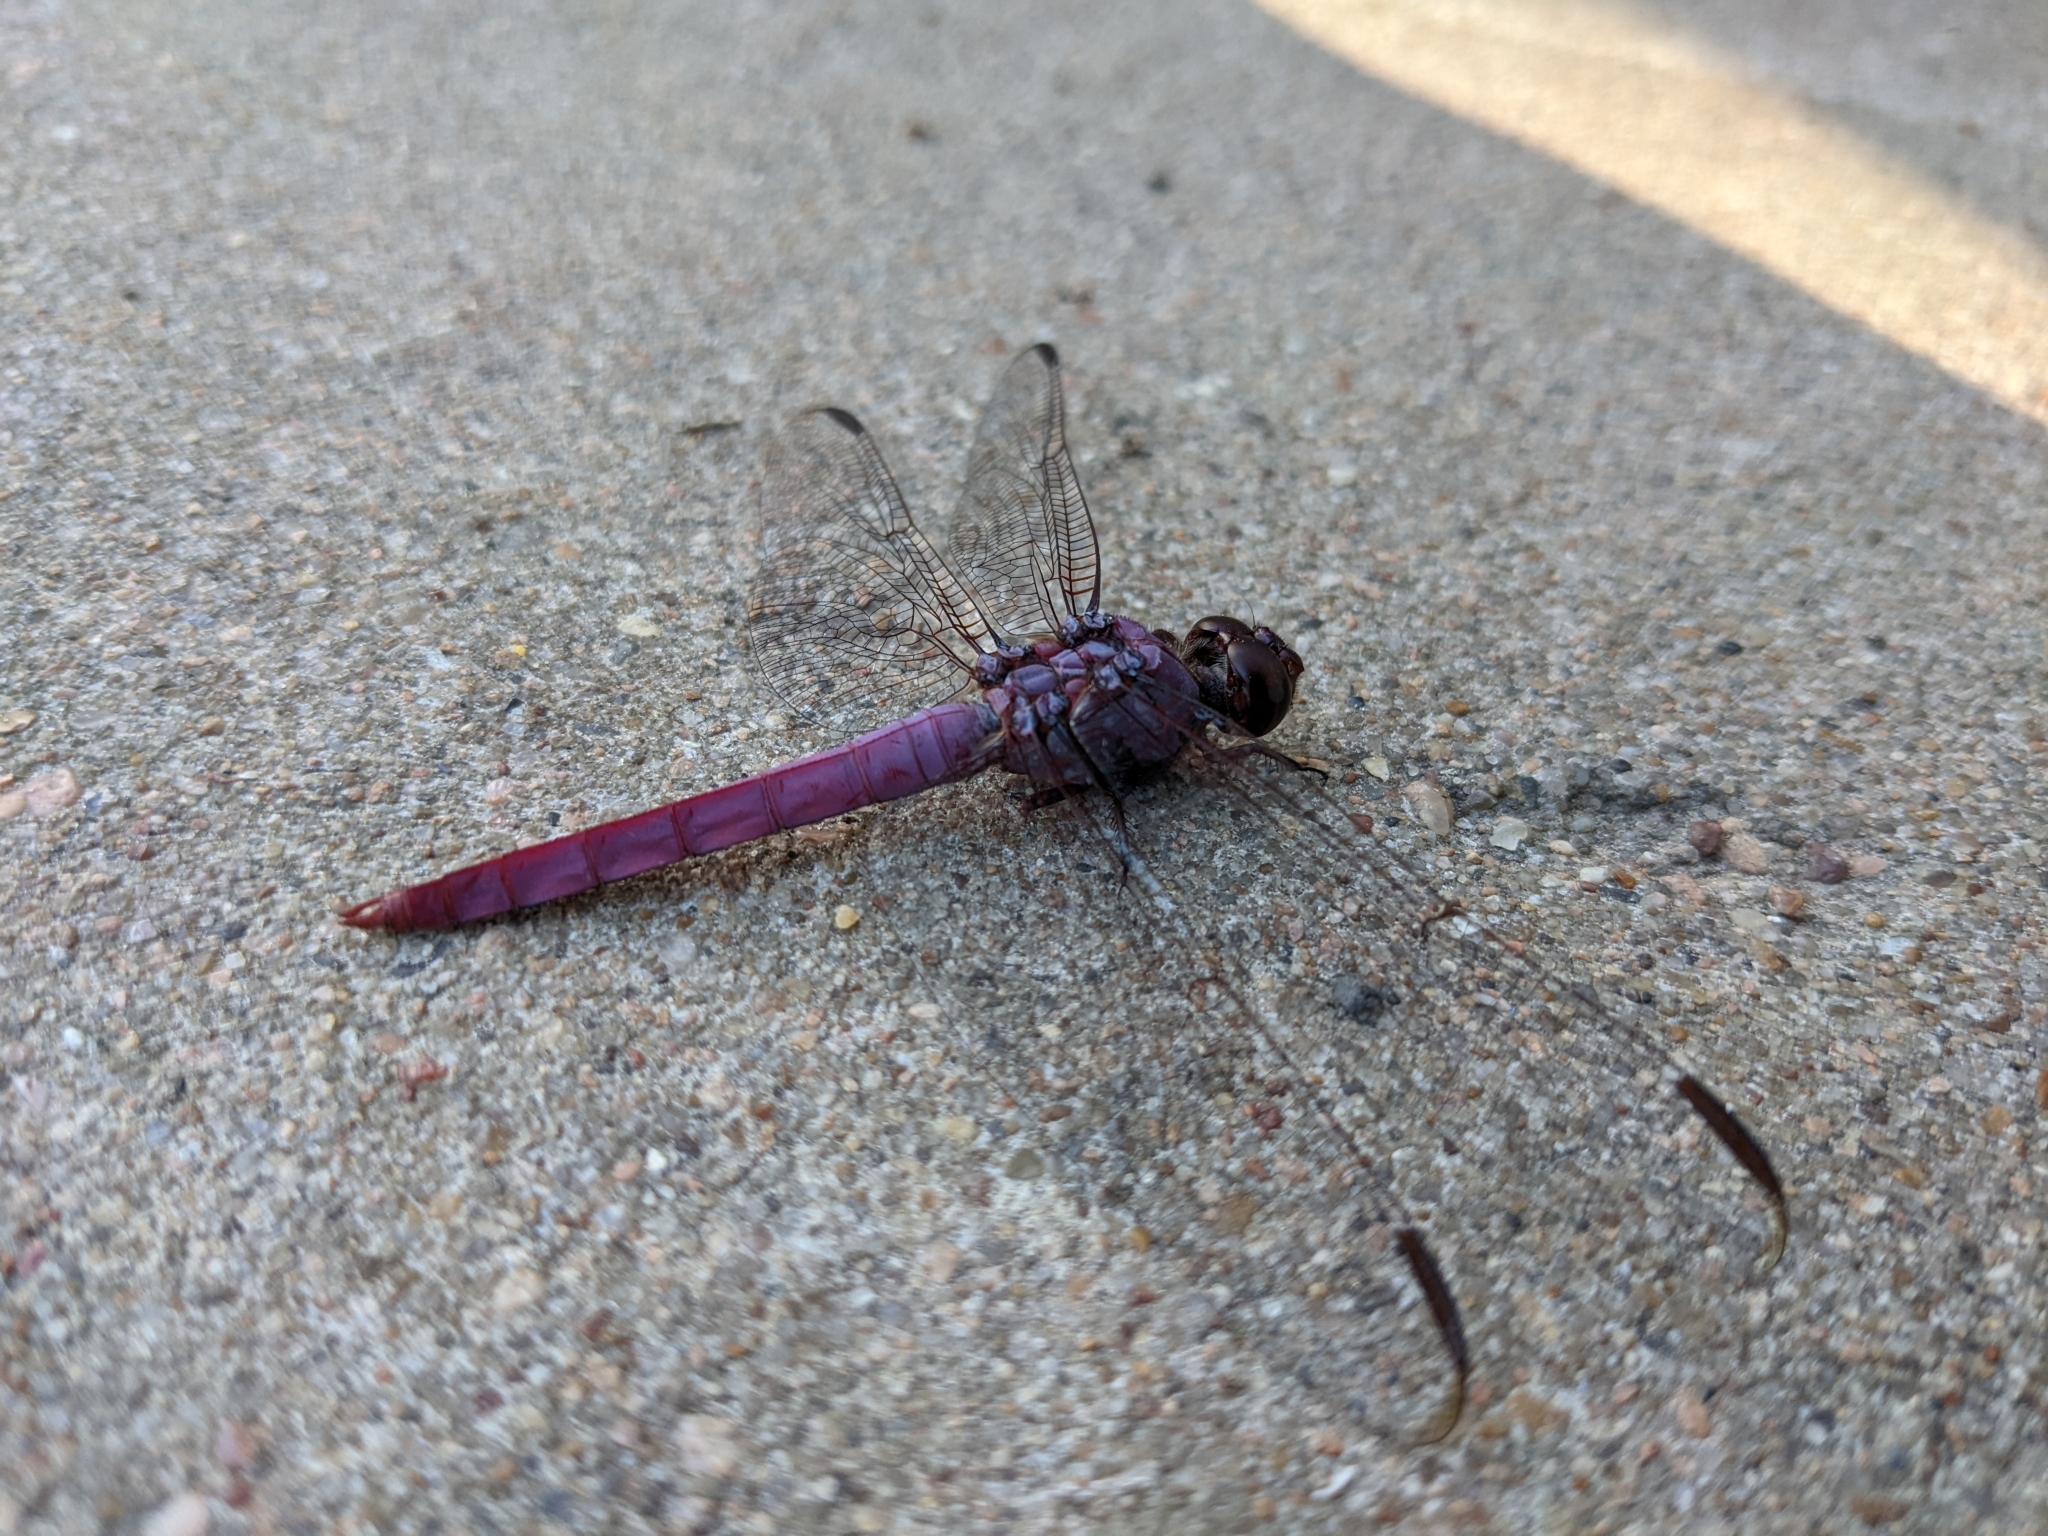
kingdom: Animalia
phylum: Arthropoda
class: Insecta
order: Odonata
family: Libellulidae
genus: Orthemis
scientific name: Orthemis ferruginea
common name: Roseate skimmer
